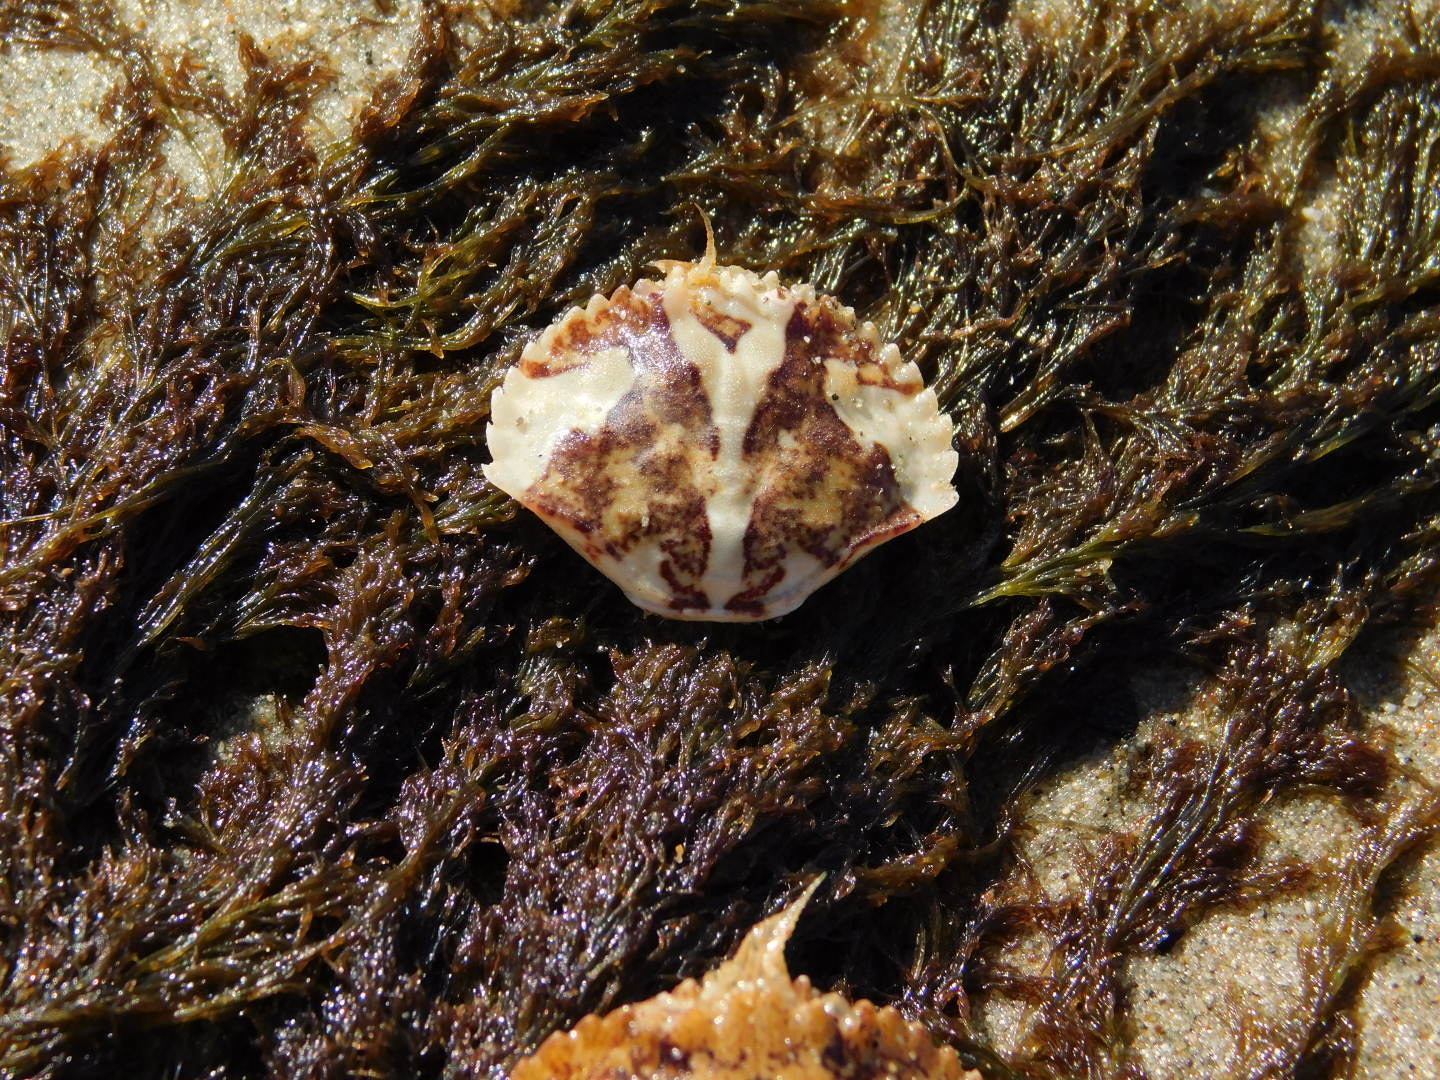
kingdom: Animalia
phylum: Arthropoda
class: Malacostraca
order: Decapoda
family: Cancridae
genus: Metacarcinus
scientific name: Metacarcinus anthonyi
